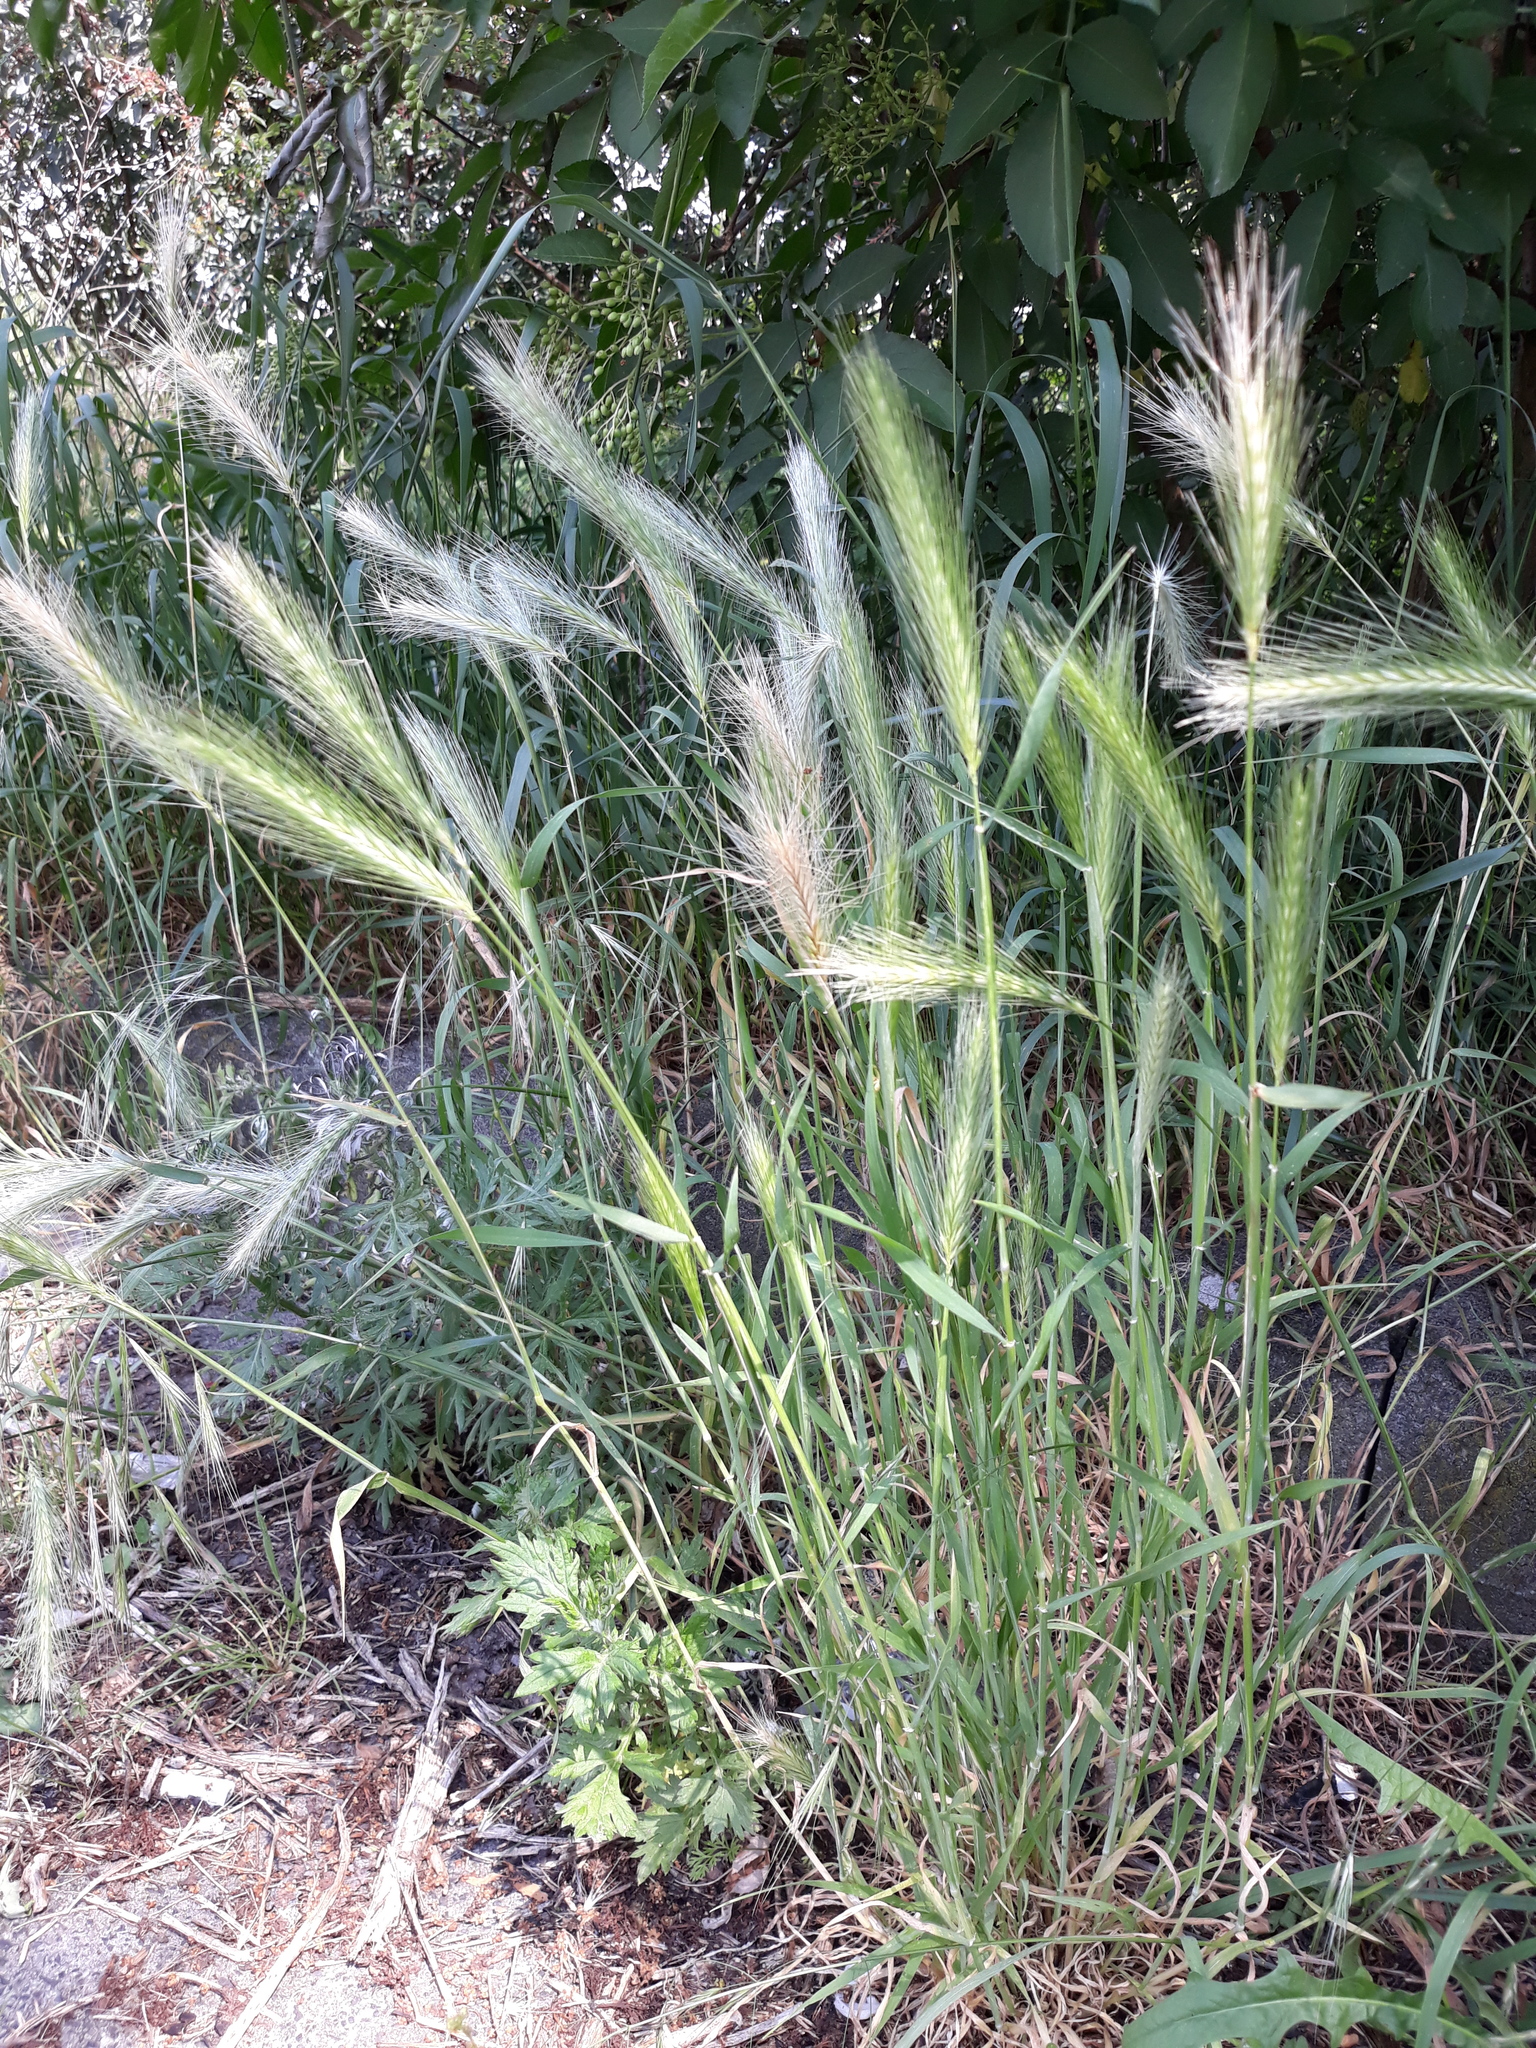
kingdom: Plantae
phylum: Tracheophyta
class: Liliopsida
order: Poales
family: Poaceae
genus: Hordeum
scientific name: Hordeum murinum
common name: Wall barley
